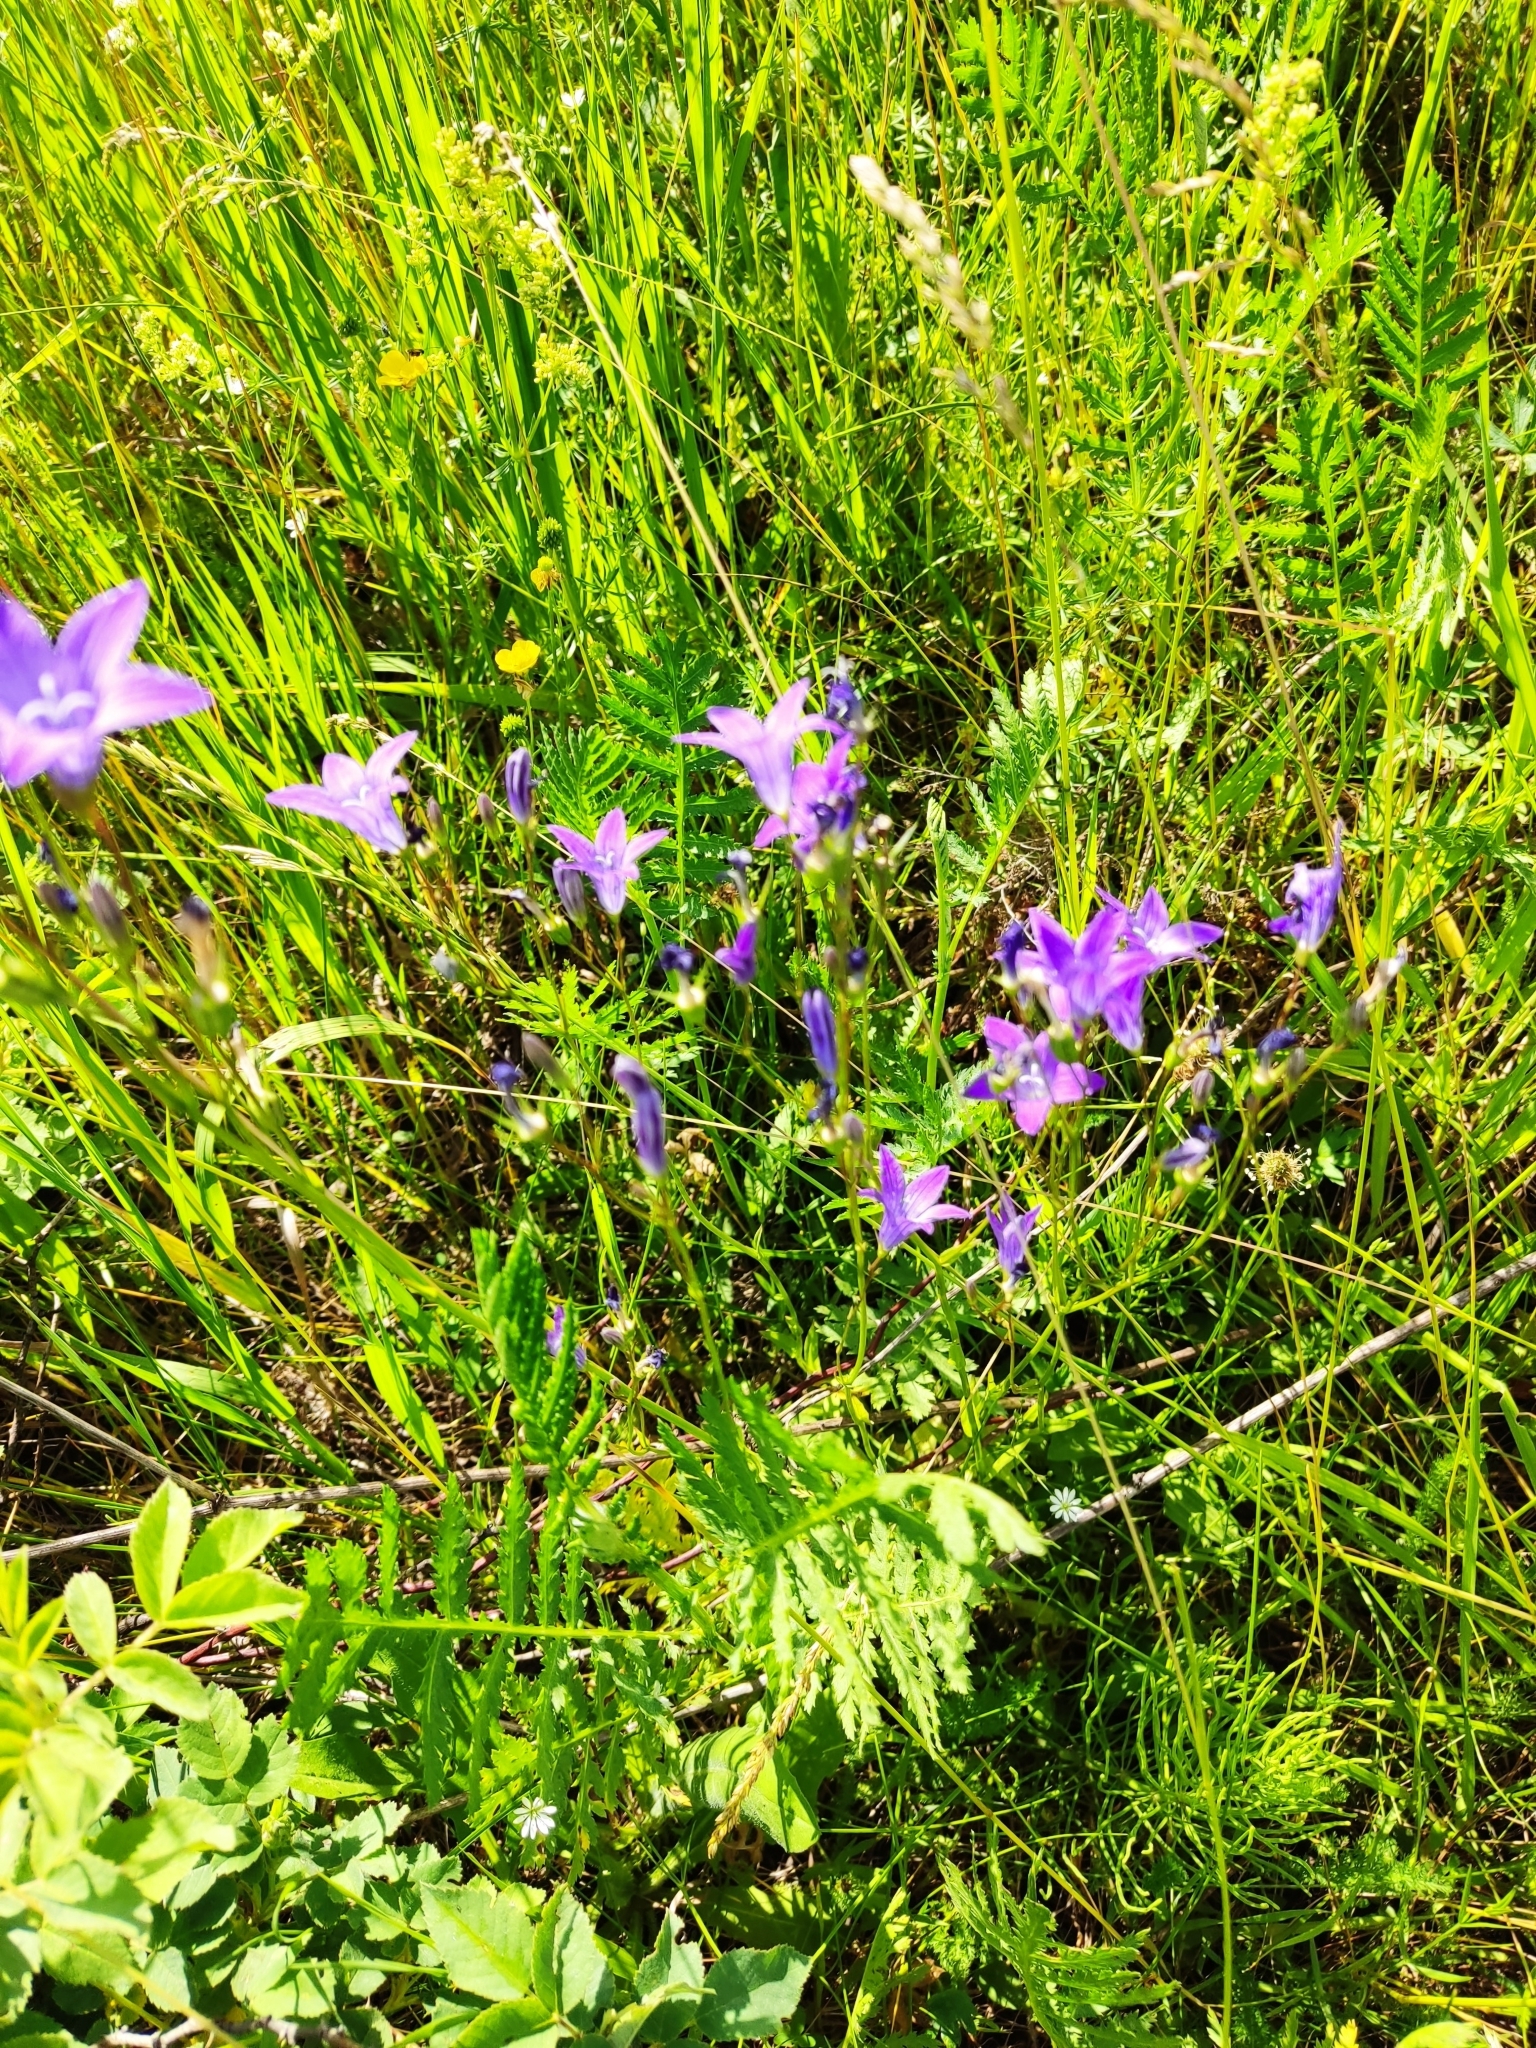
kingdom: Plantae
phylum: Tracheophyta
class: Magnoliopsida
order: Asterales
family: Campanulaceae
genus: Campanula
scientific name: Campanula patula
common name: Spreading bellflower
